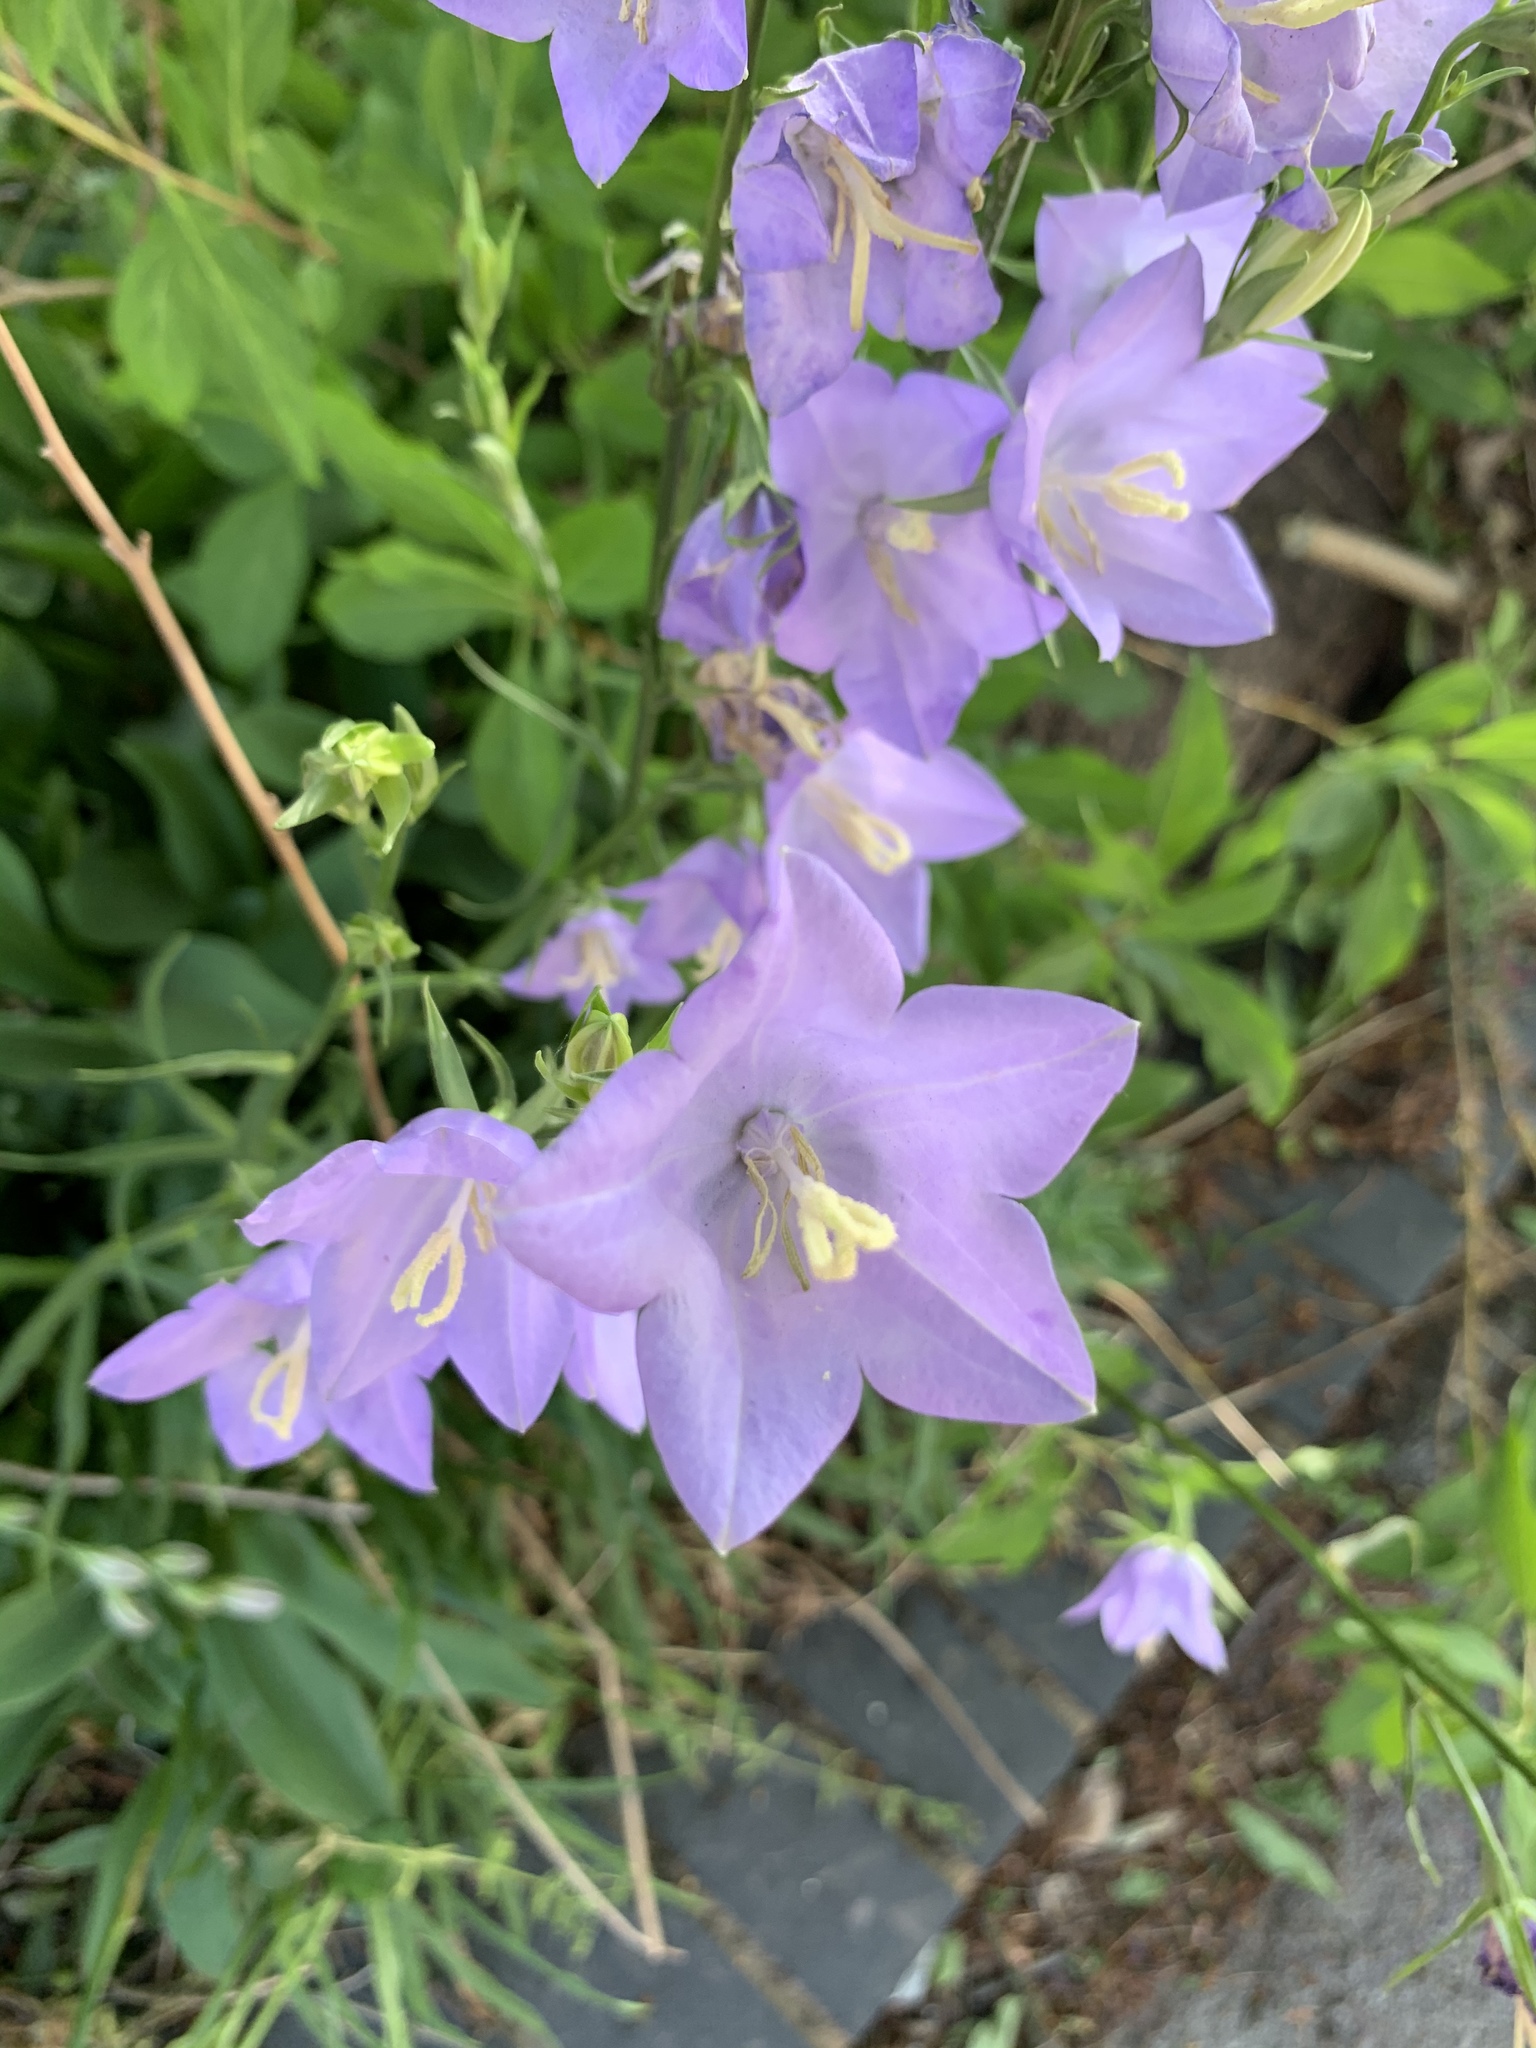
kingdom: Plantae
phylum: Tracheophyta
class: Magnoliopsida
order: Asterales
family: Campanulaceae
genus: Campanula
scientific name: Campanula persicifolia
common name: Peach-leaved bellflower
